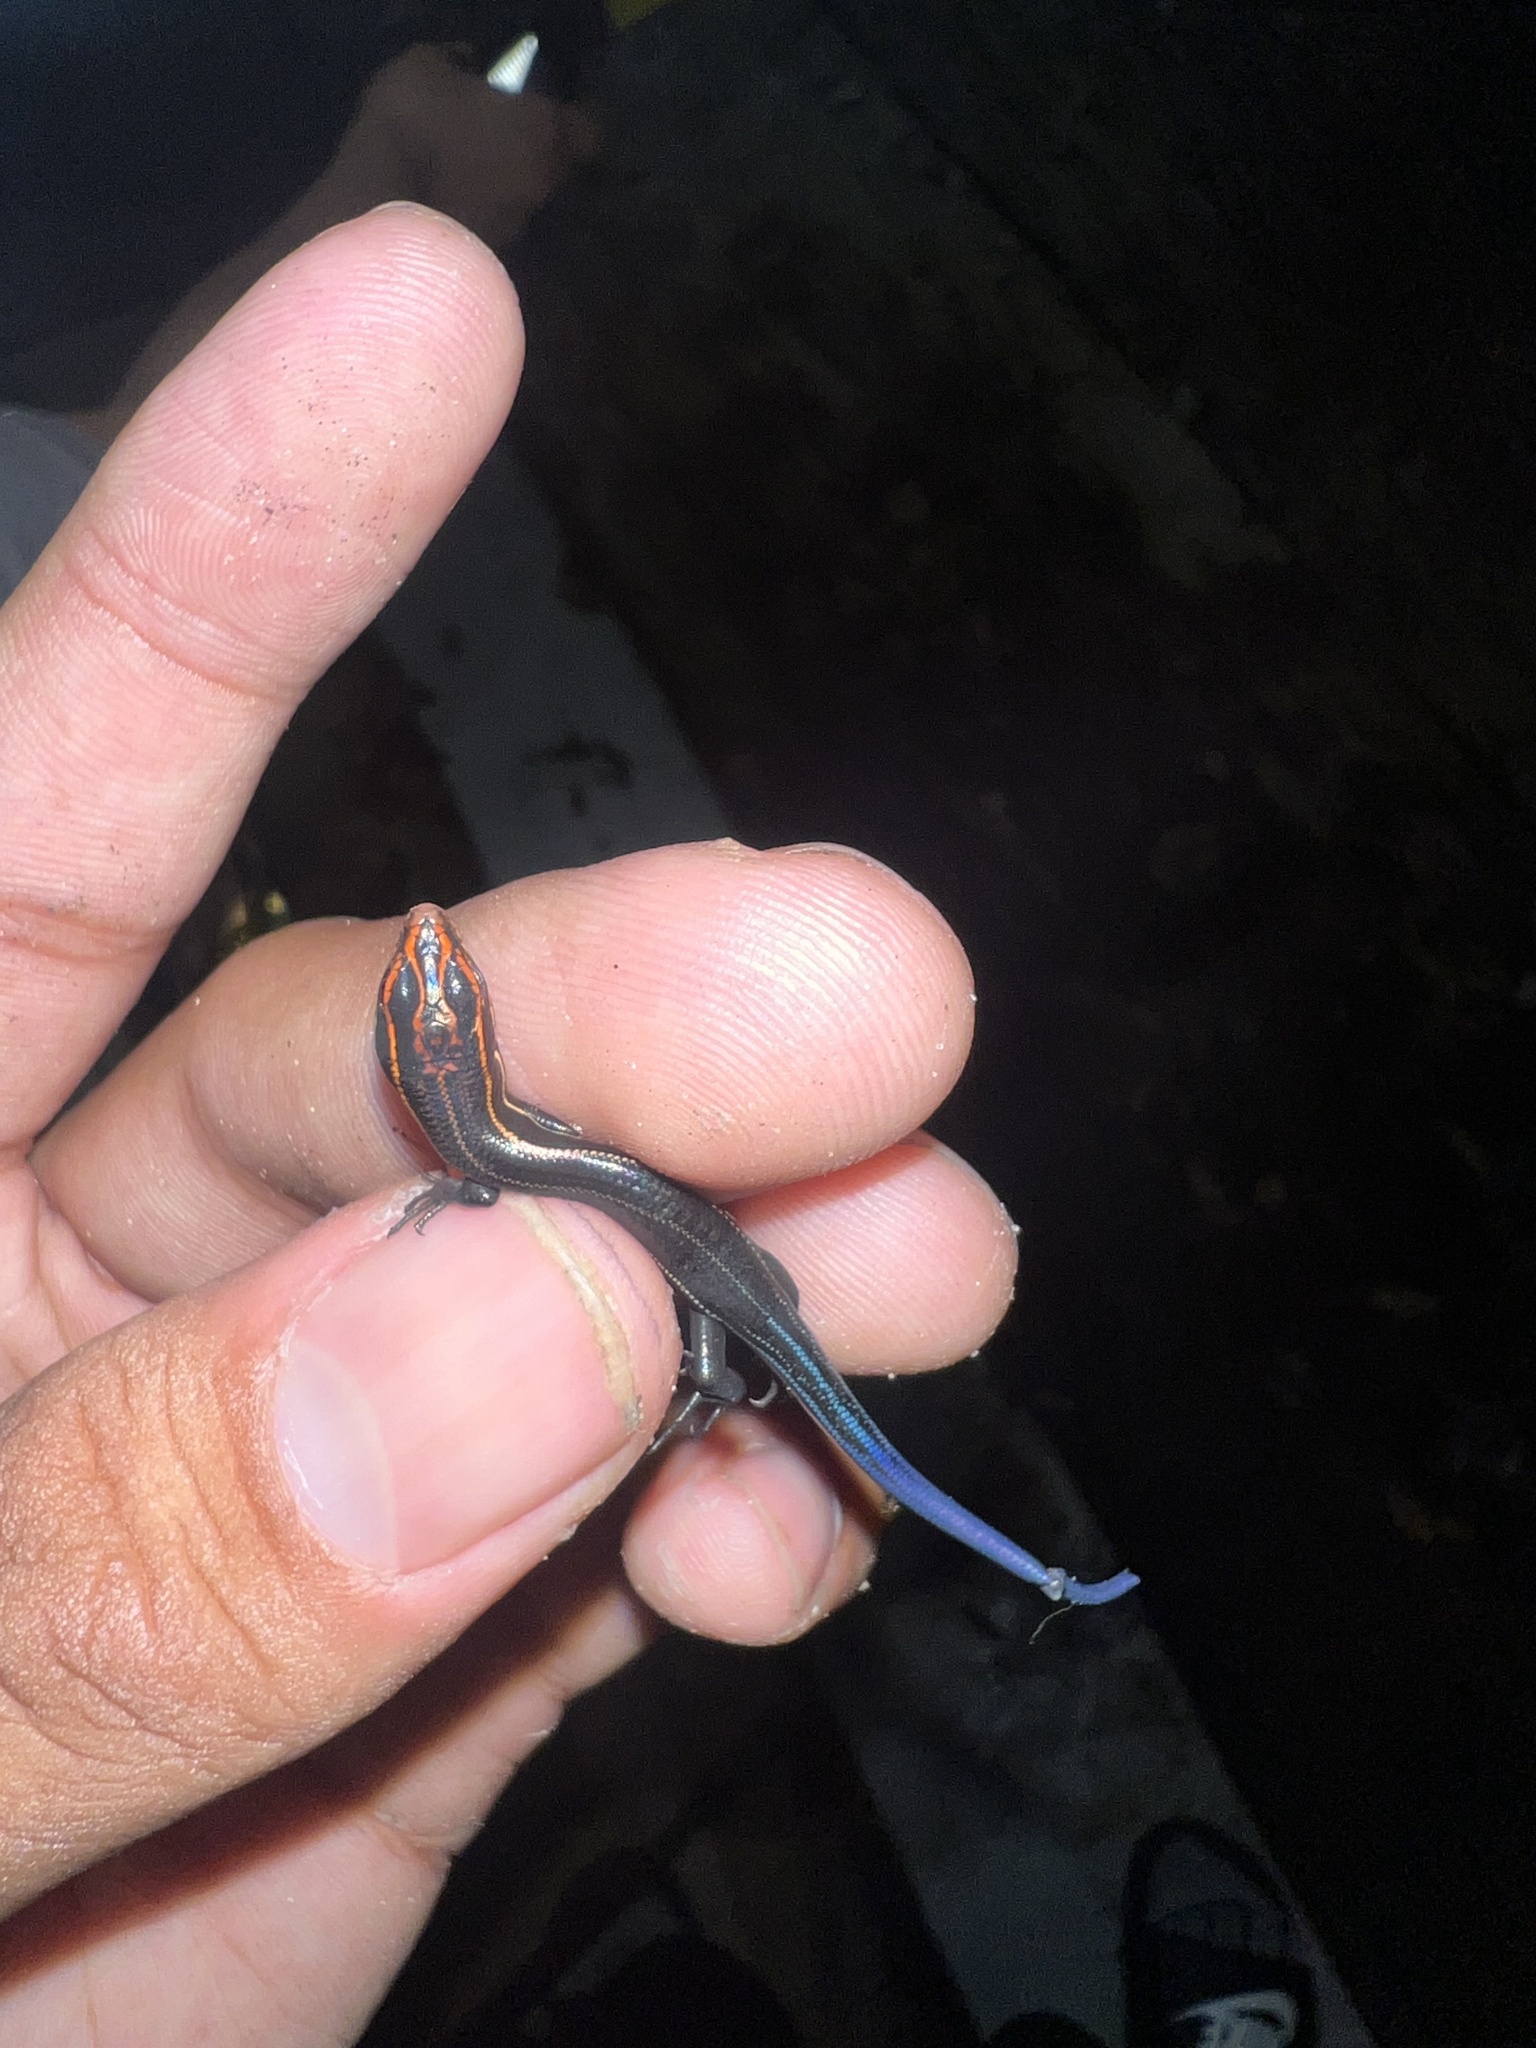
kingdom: Animalia
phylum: Chordata
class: Squamata
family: Scincidae
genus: Plestiodon
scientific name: Plestiodon inexpectatus
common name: Southeastern five-lined skink
